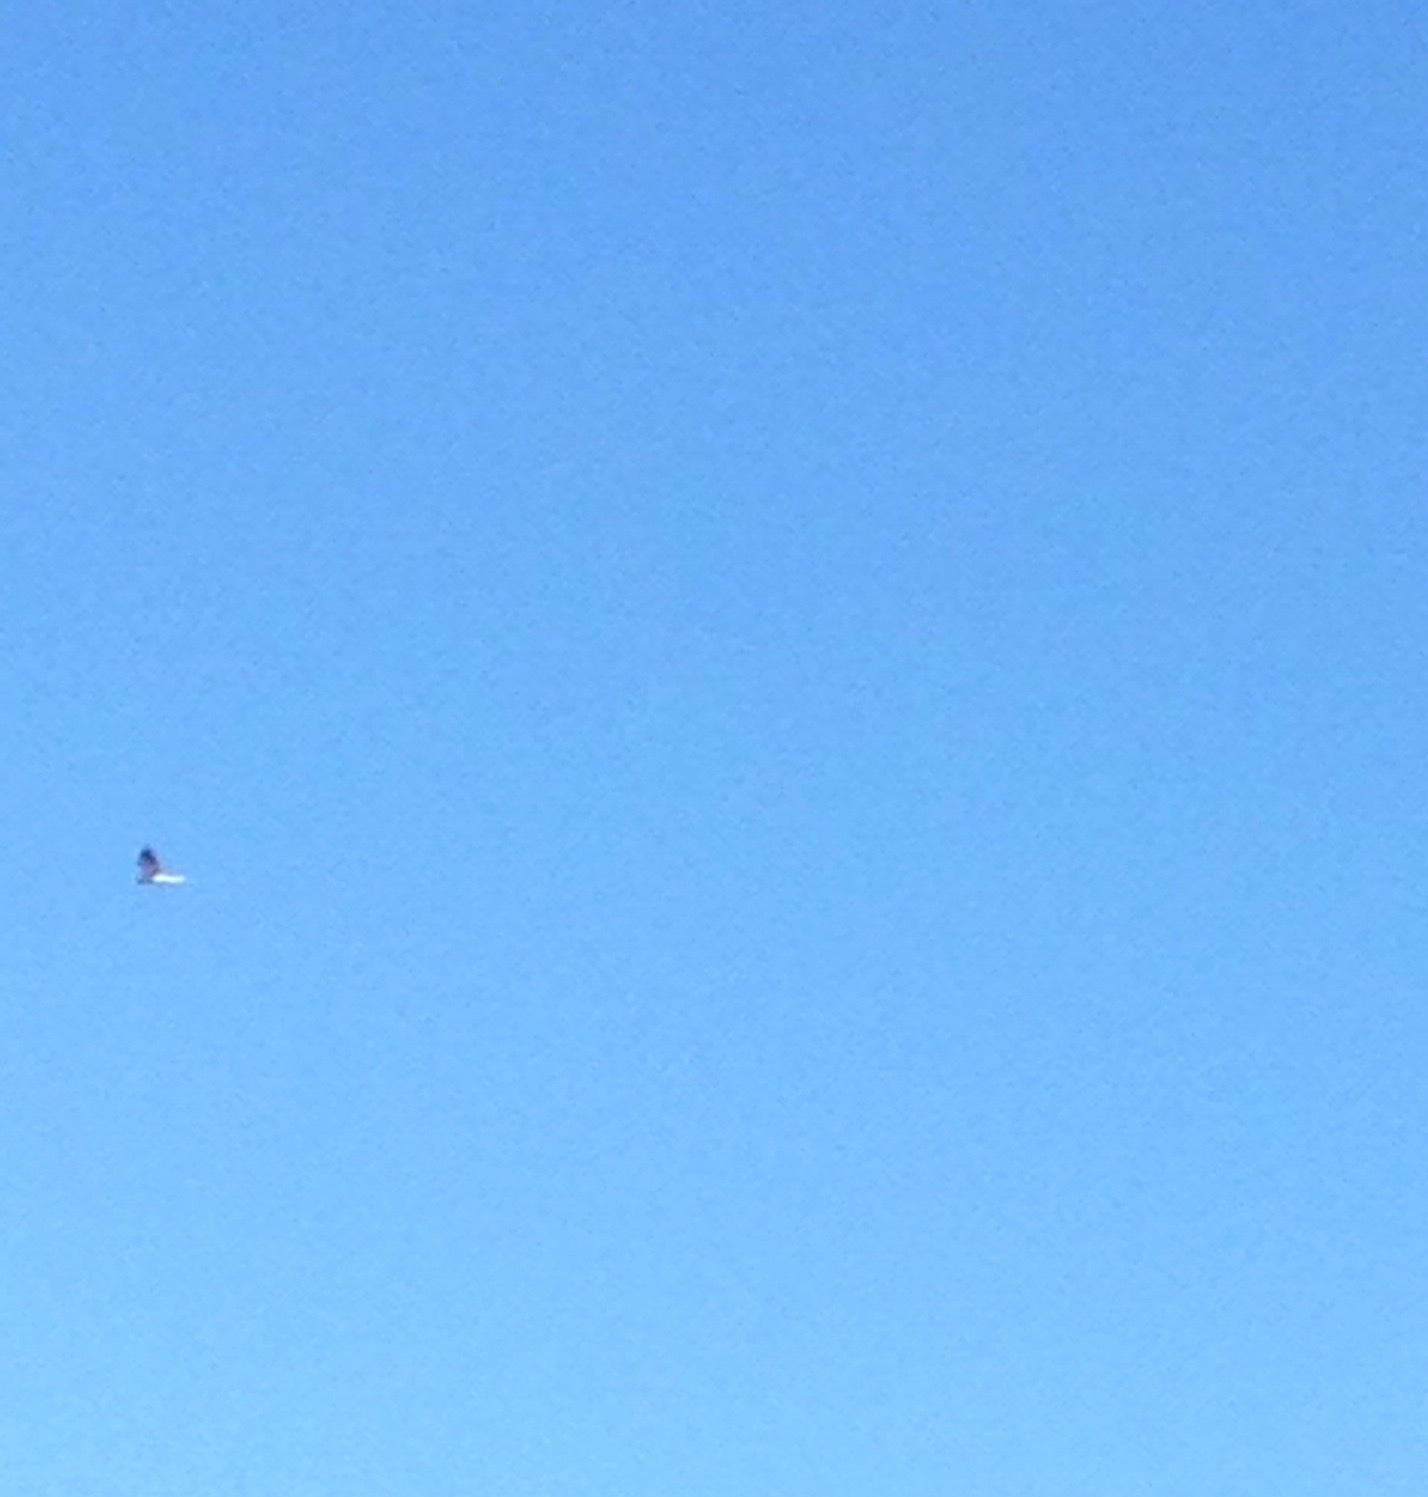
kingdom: Animalia
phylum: Chordata
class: Aves
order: Accipitriformes
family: Accipitridae
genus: Elanus
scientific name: Elanus leucurus
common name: White-tailed kite
